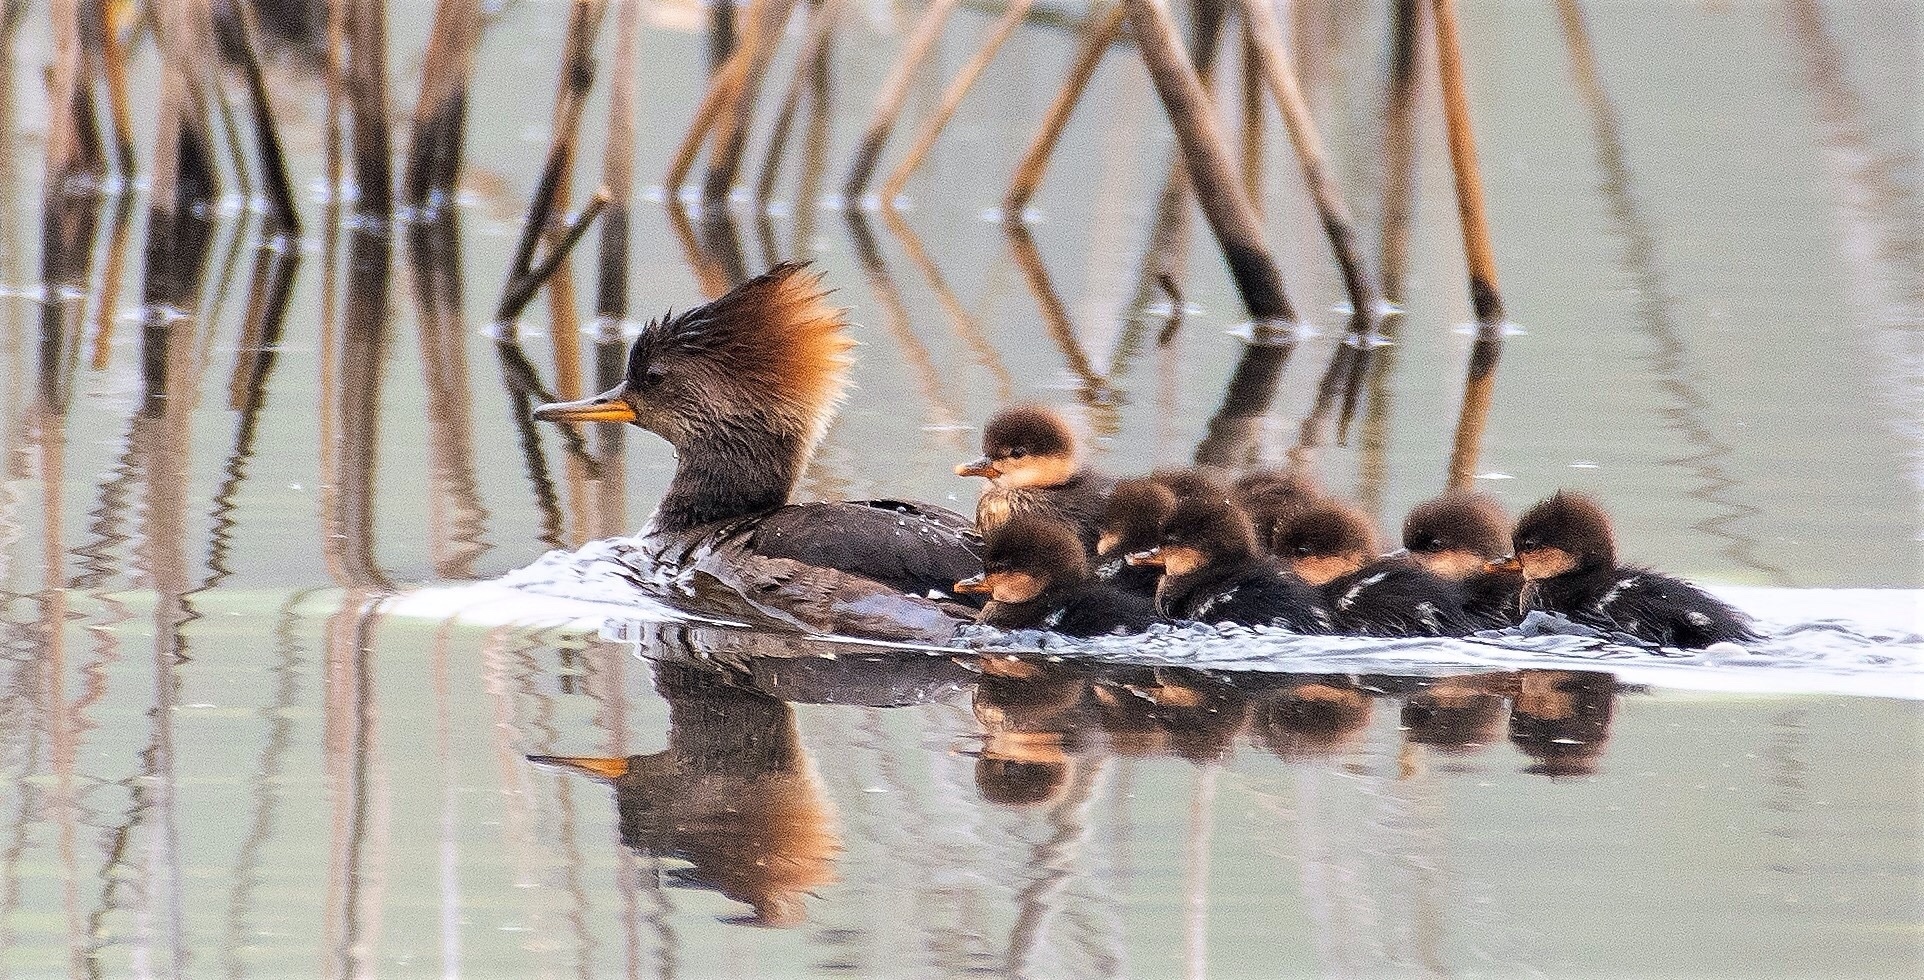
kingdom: Animalia
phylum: Chordata
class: Aves
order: Anseriformes
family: Anatidae
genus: Lophodytes
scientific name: Lophodytes cucullatus
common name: Hooded merganser
